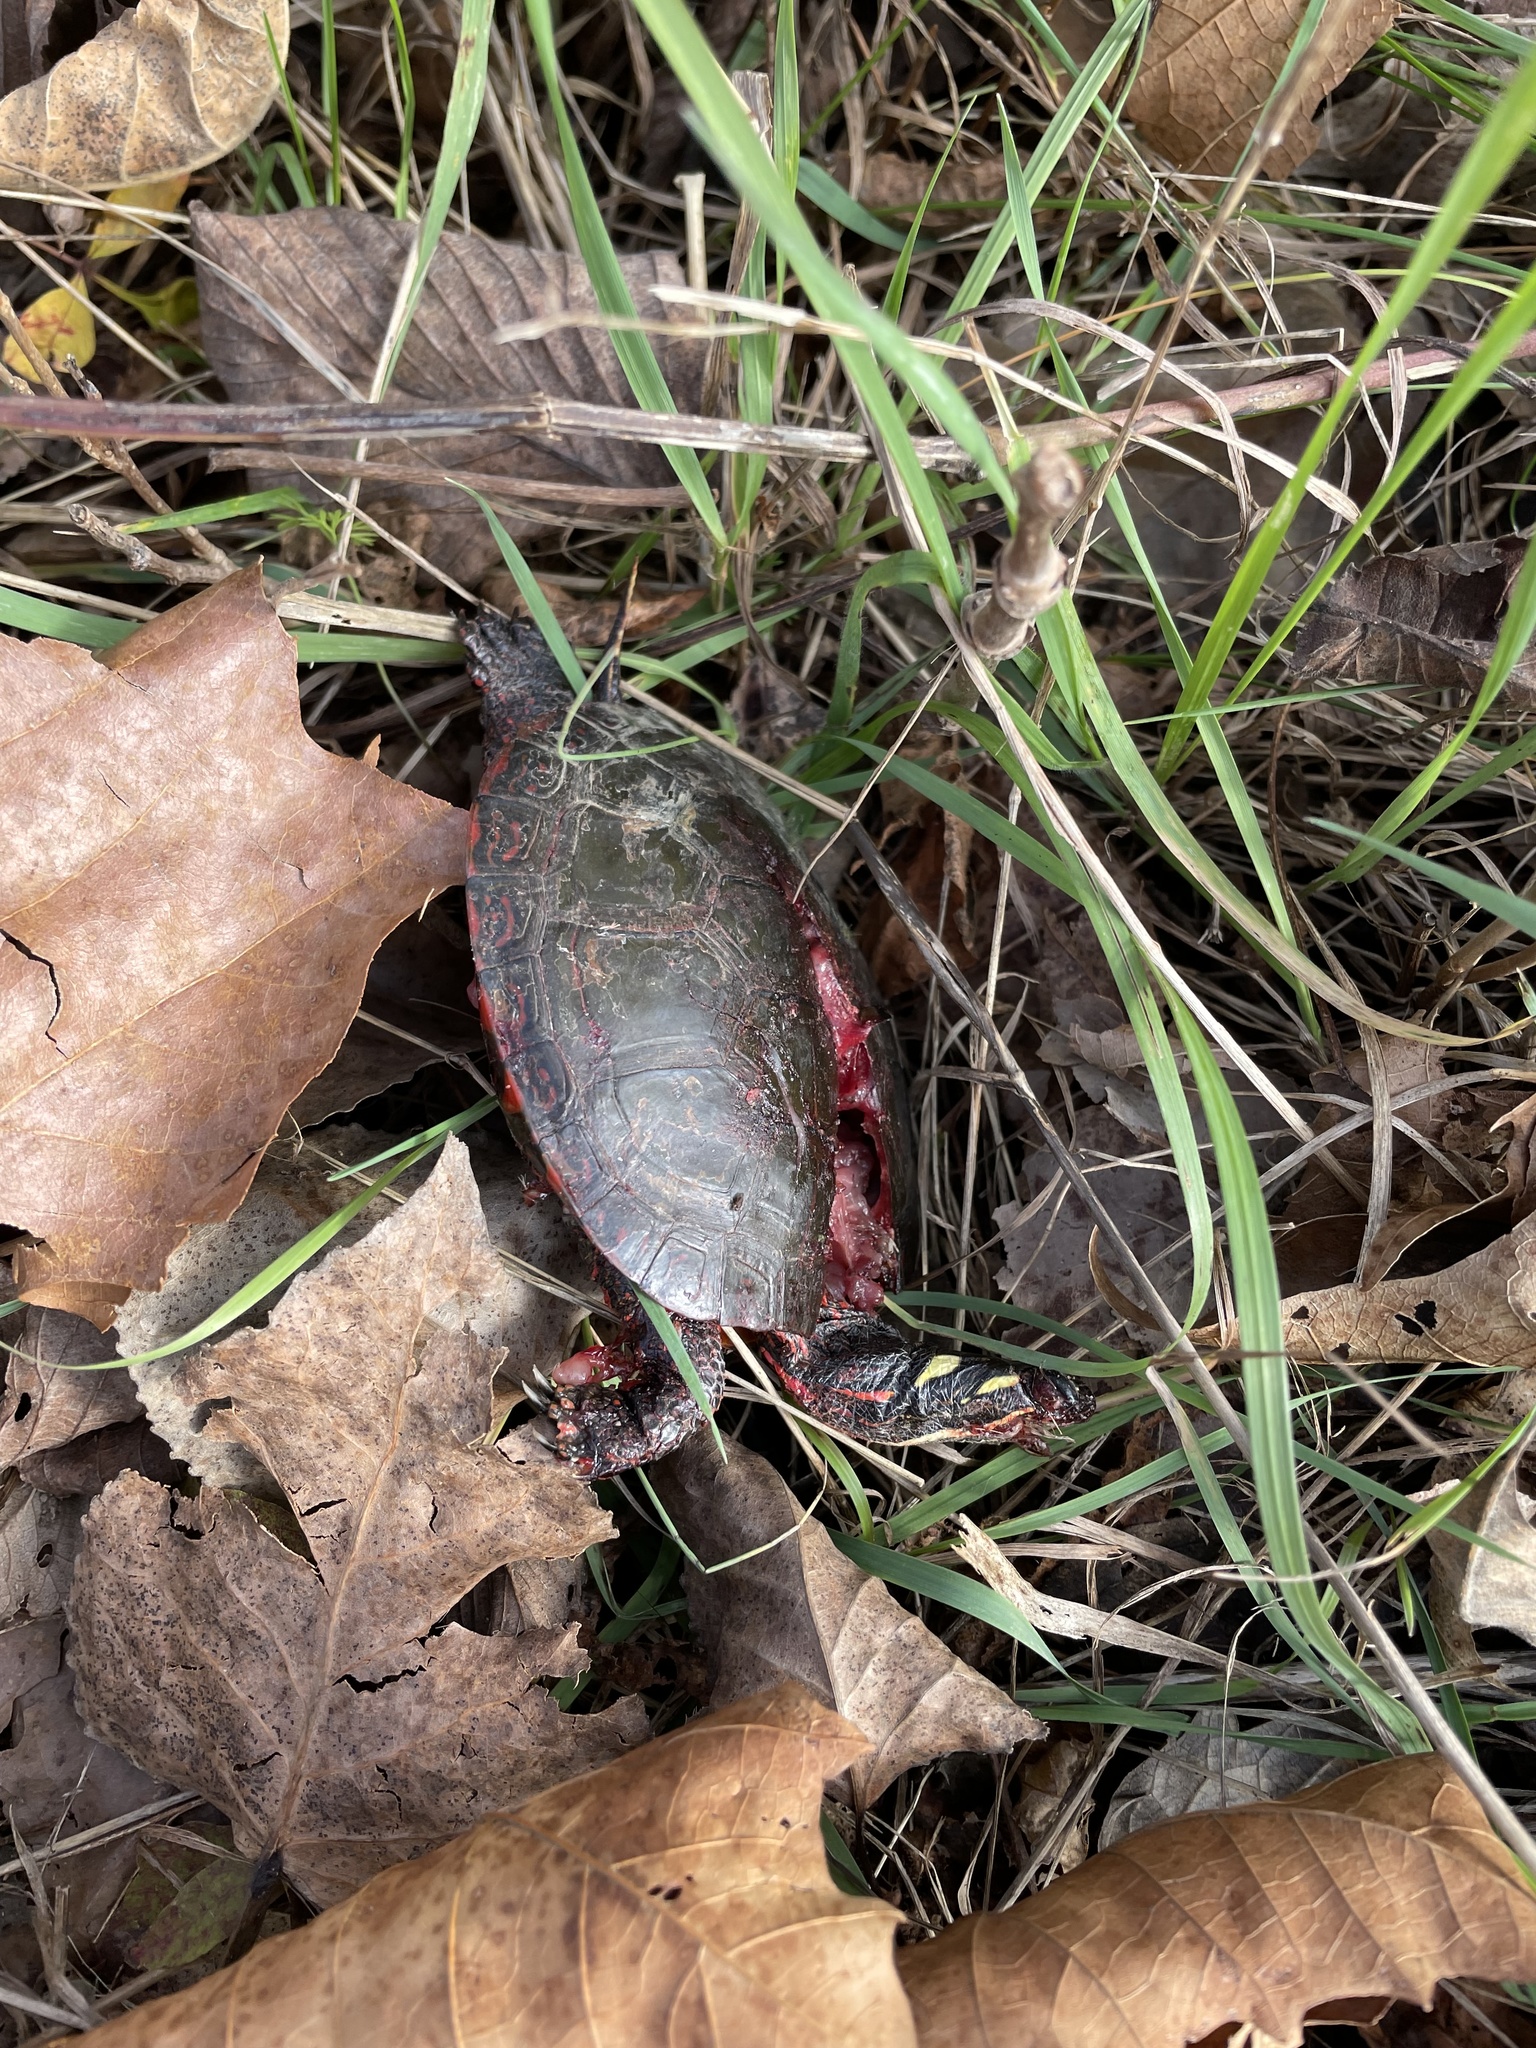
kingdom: Animalia
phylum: Chordata
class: Testudines
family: Emydidae
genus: Chrysemys
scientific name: Chrysemys picta
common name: Painted turtle
